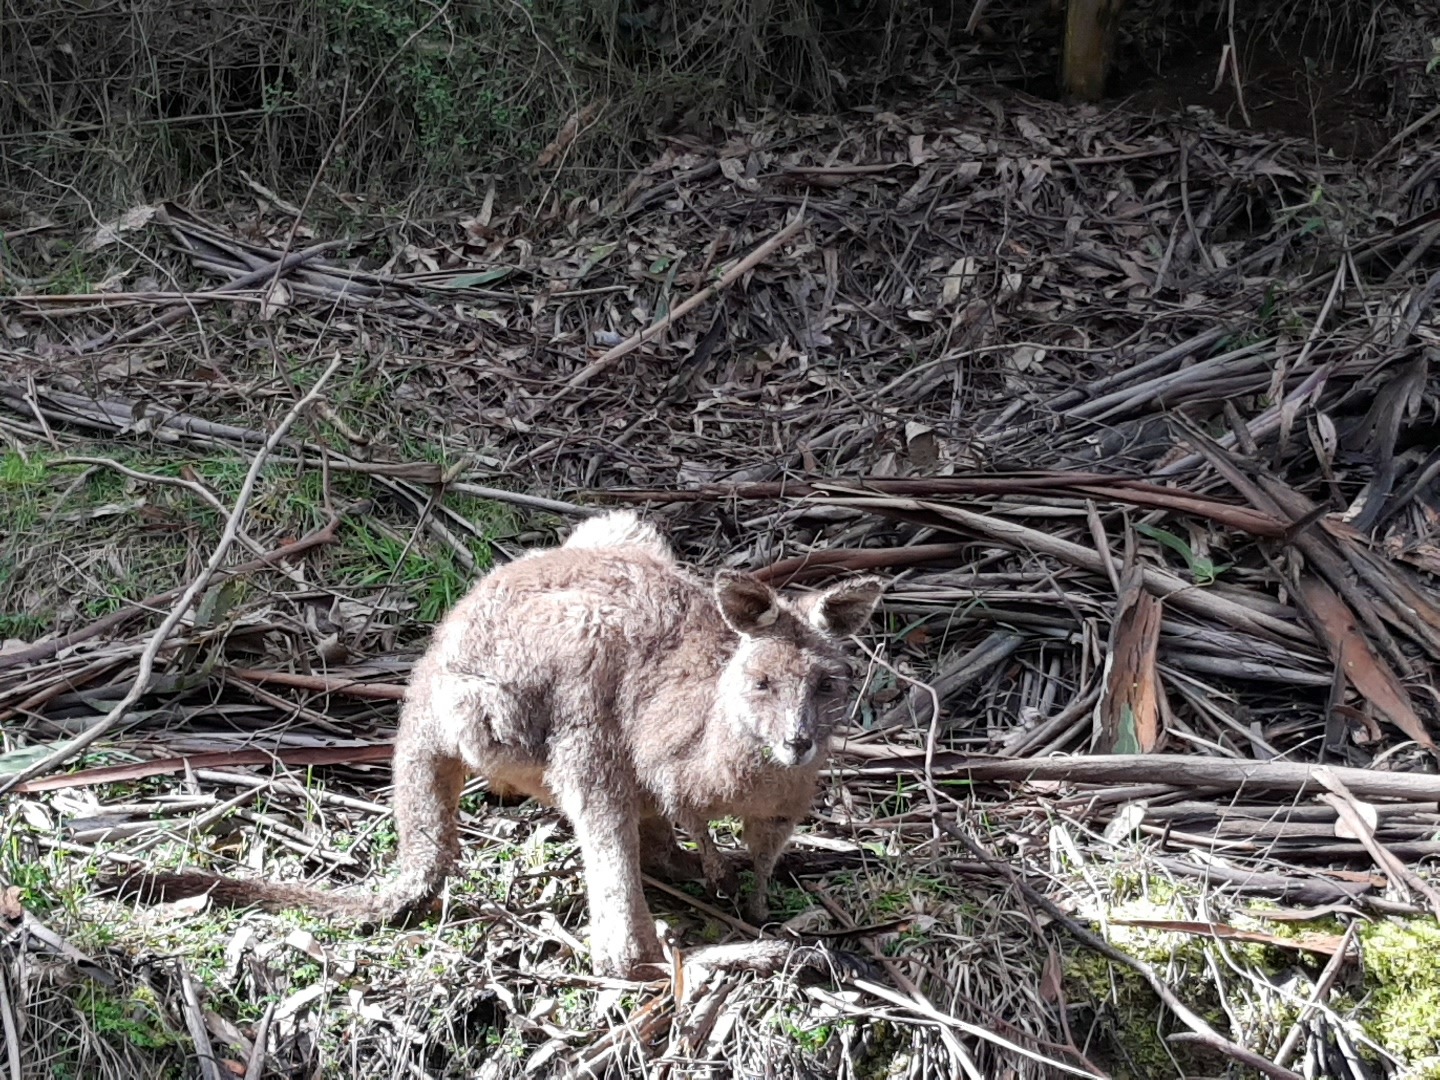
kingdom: Animalia
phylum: Chordata
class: Mammalia
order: Diprotodontia
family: Macropodidae
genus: Macropus
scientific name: Macropus giganteus
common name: Eastern grey kangaroo
